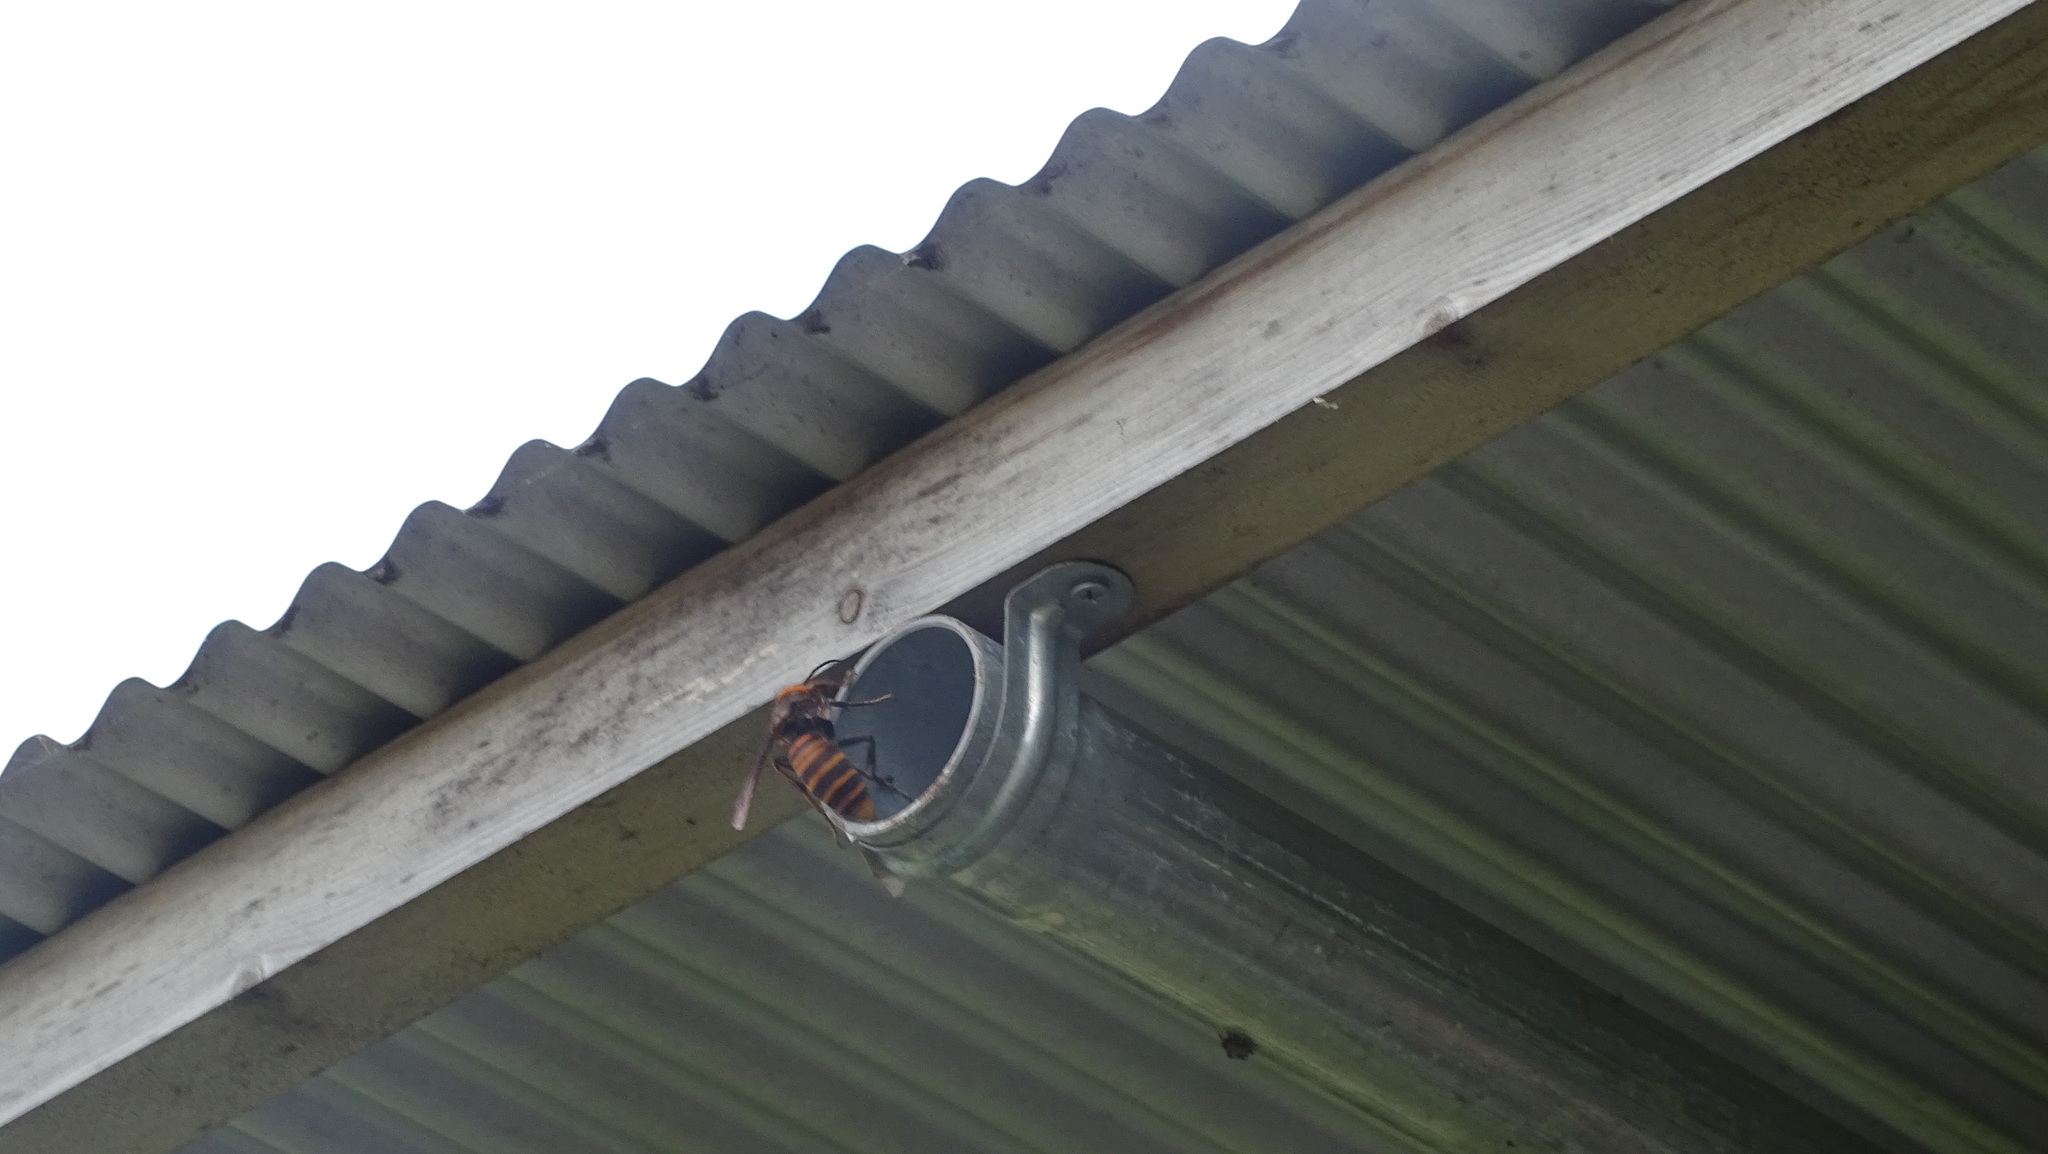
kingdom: Animalia
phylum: Arthropoda
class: Insecta
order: Hymenoptera
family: Vespidae
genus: Vespa
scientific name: Vespa mandarinia
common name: Asian giant hornet
